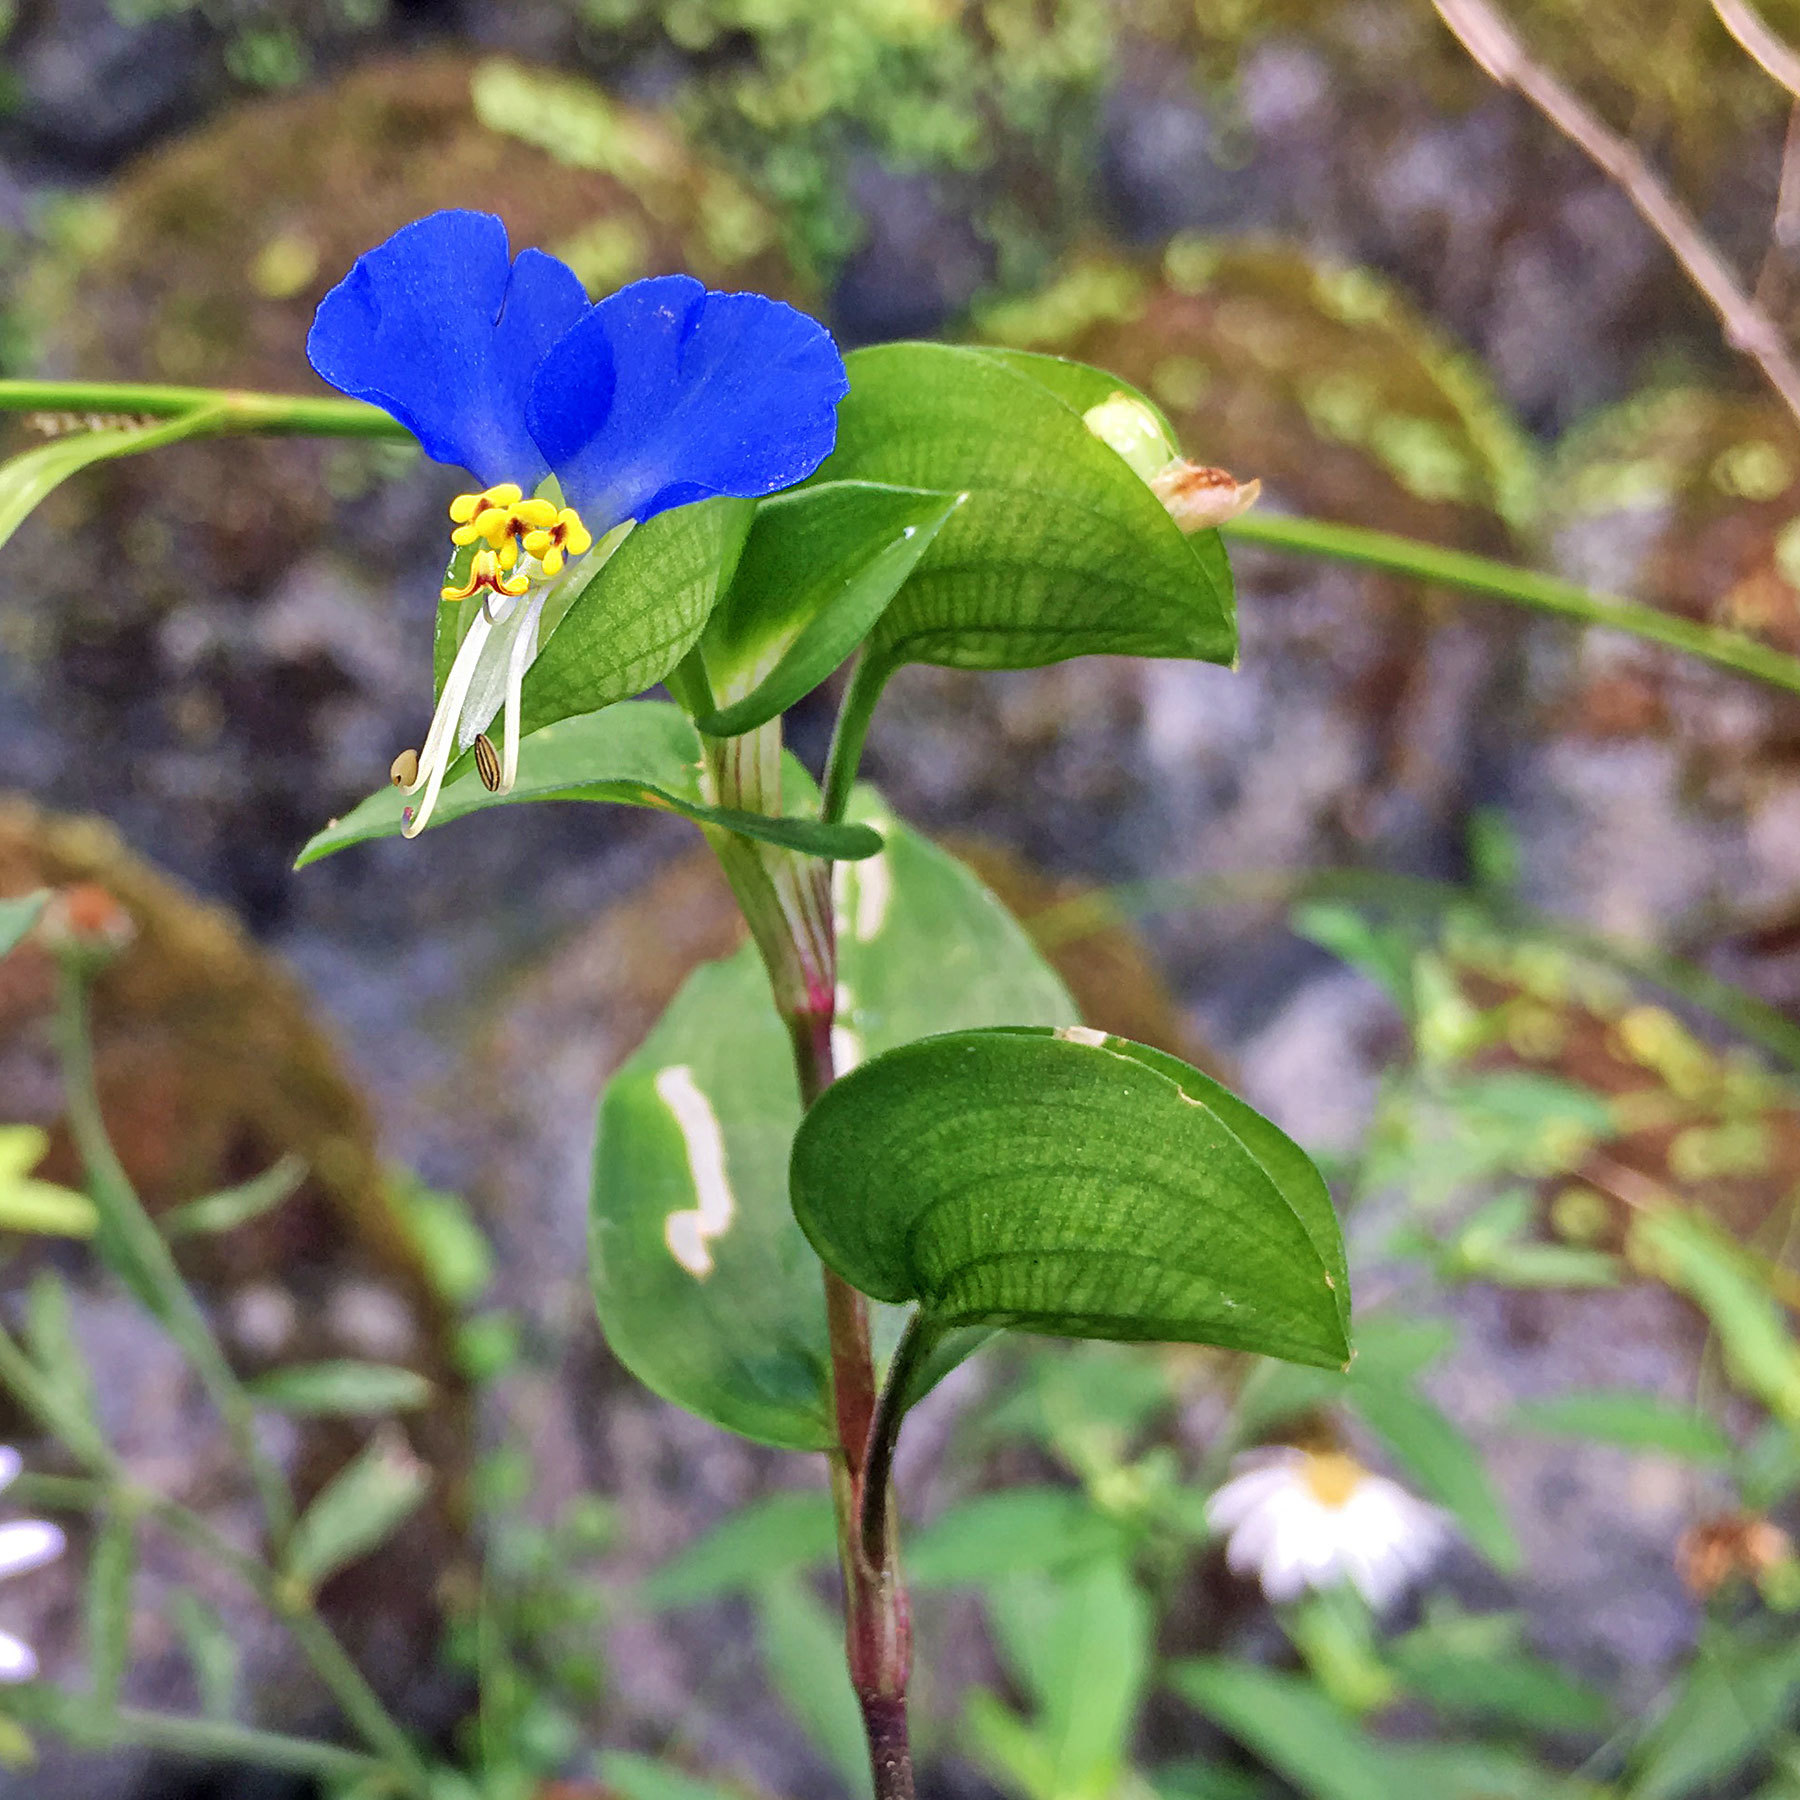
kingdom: Plantae
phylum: Tracheophyta
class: Liliopsida
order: Commelinales
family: Commelinaceae
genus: Commelina
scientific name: Commelina communis
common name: Asiatic dayflower
